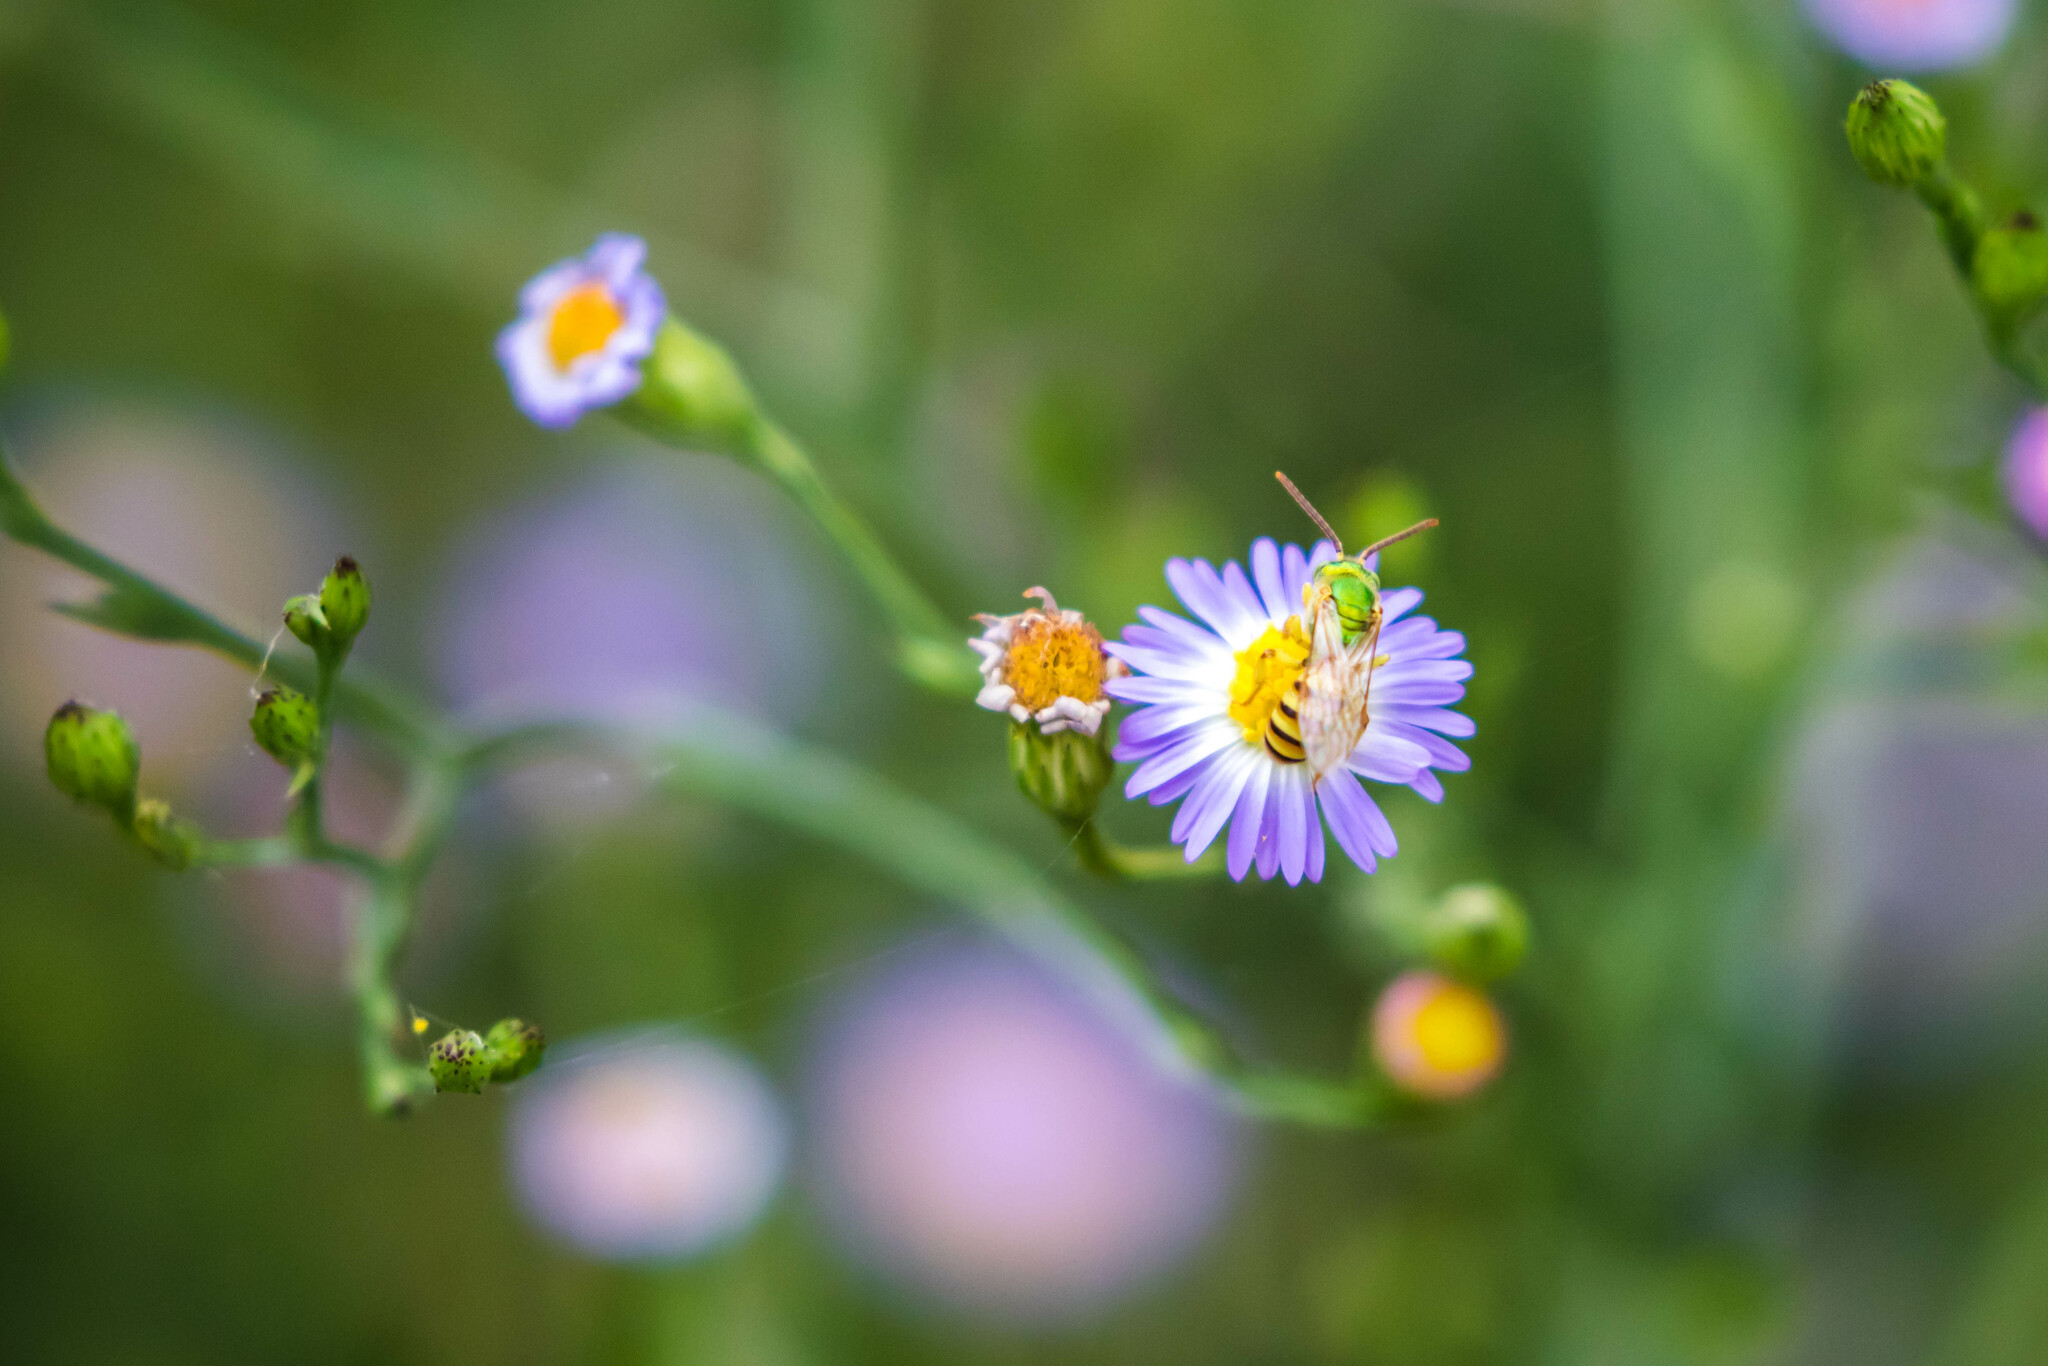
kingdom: Animalia
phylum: Arthropoda
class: Insecta
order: Hymenoptera
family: Halictidae
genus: Agapostemon
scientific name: Agapostemon melliventris
